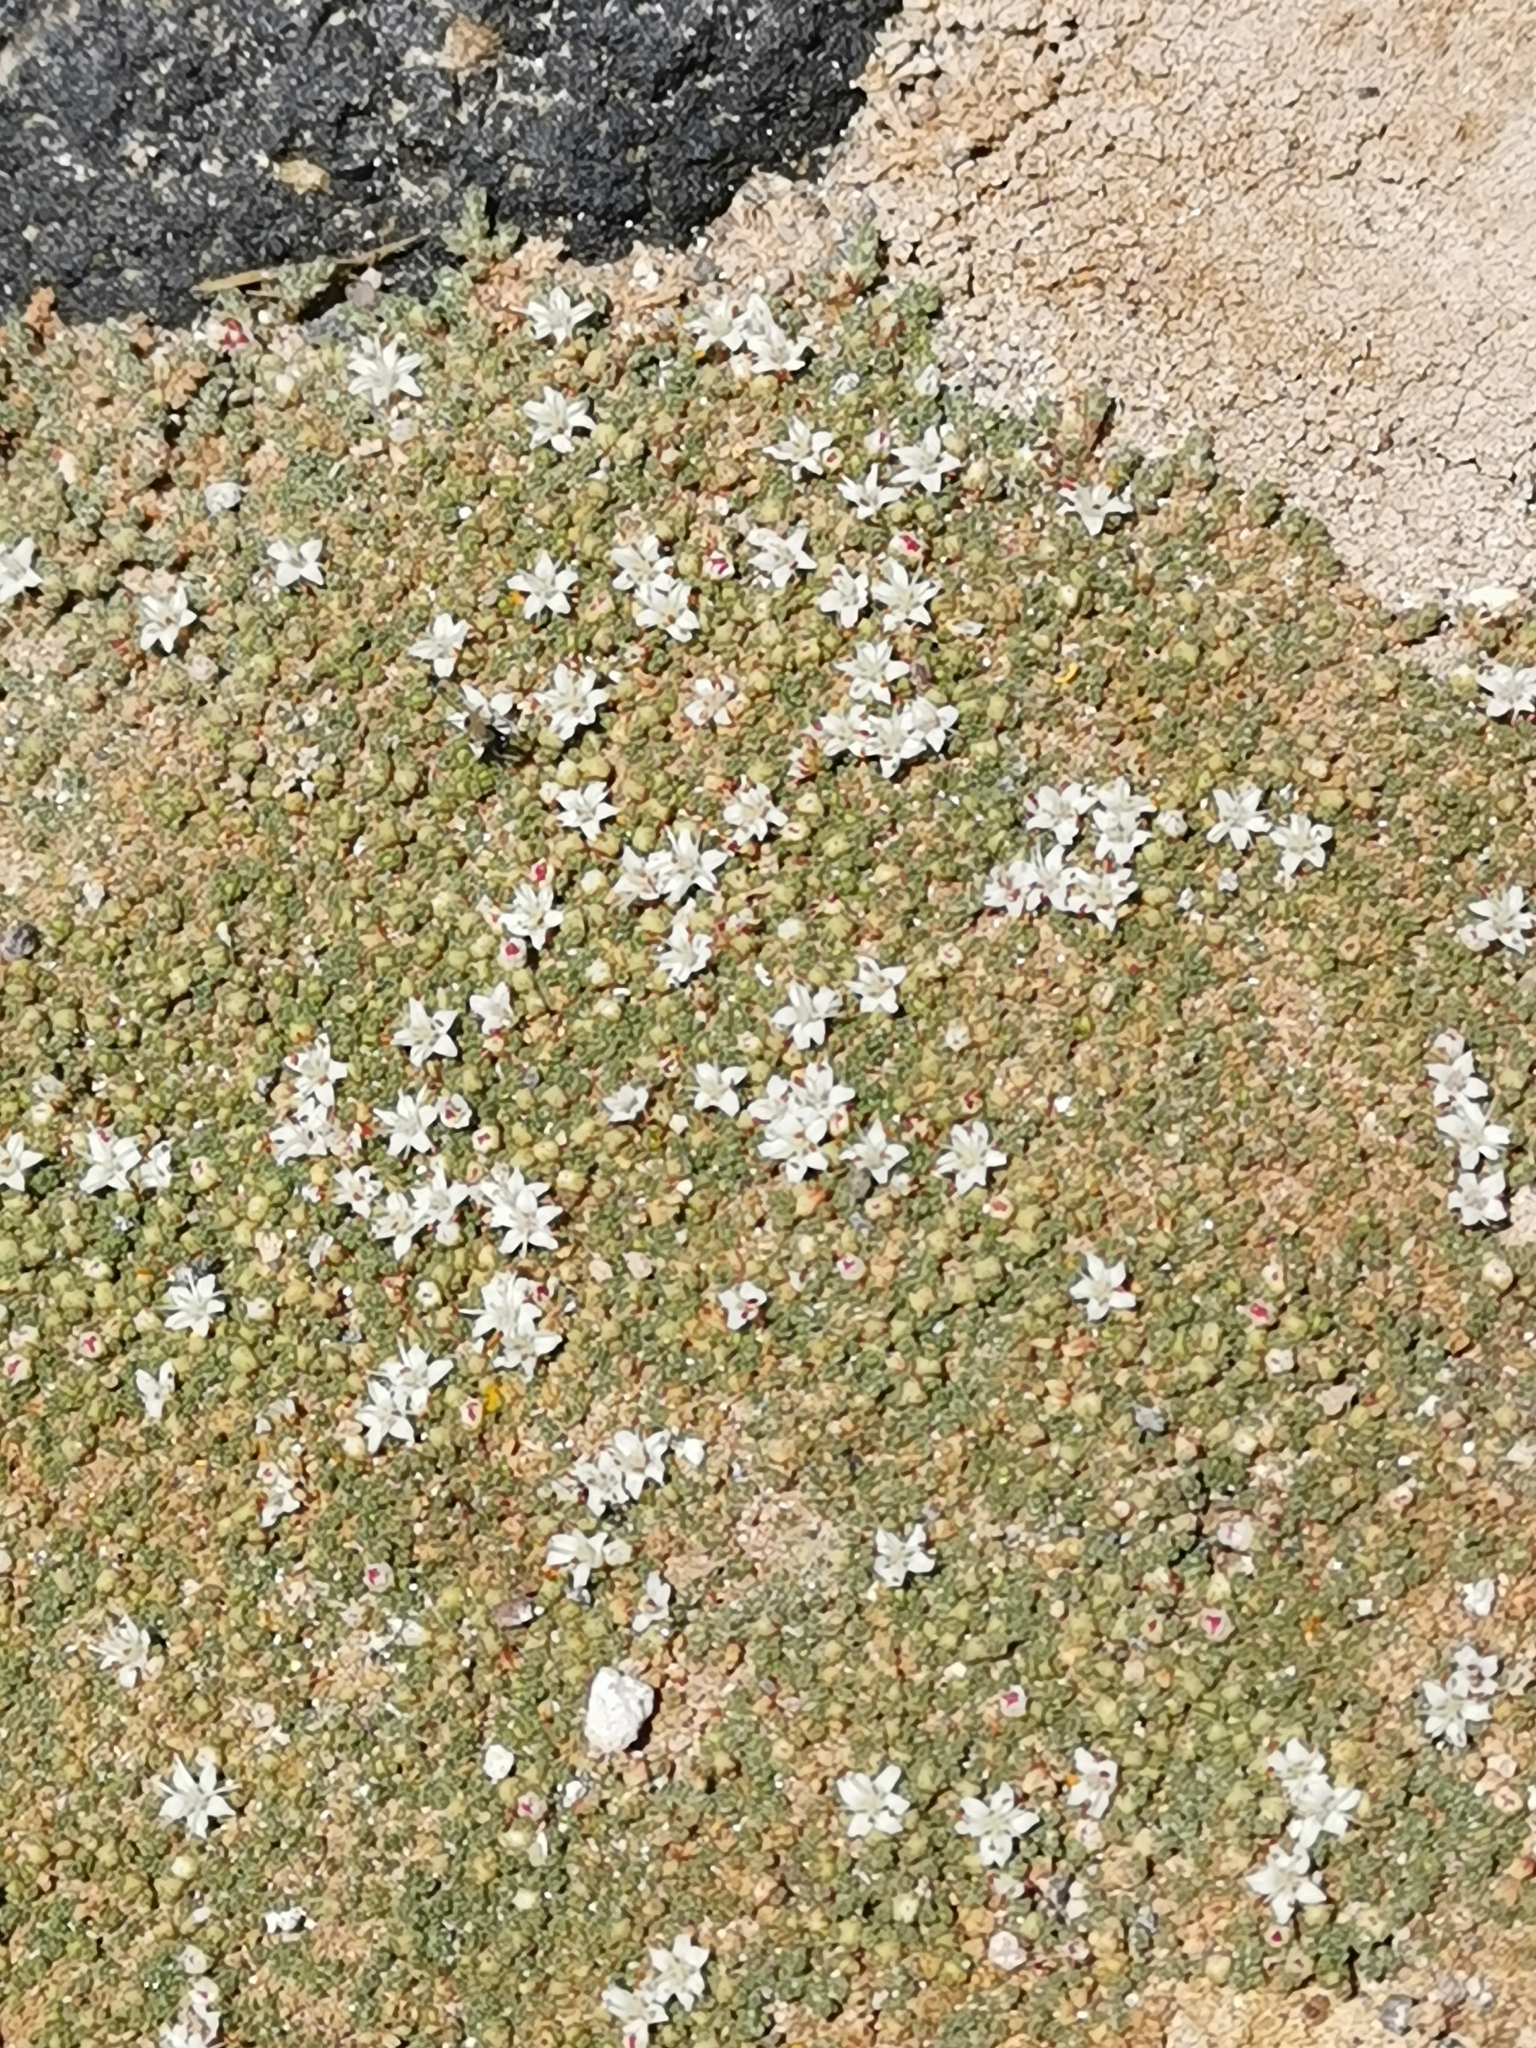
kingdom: Plantae
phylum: Tracheophyta
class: Magnoliopsida
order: Caryophyllales
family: Frankeniaceae
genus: Frankenia
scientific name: Frankenia triandra
